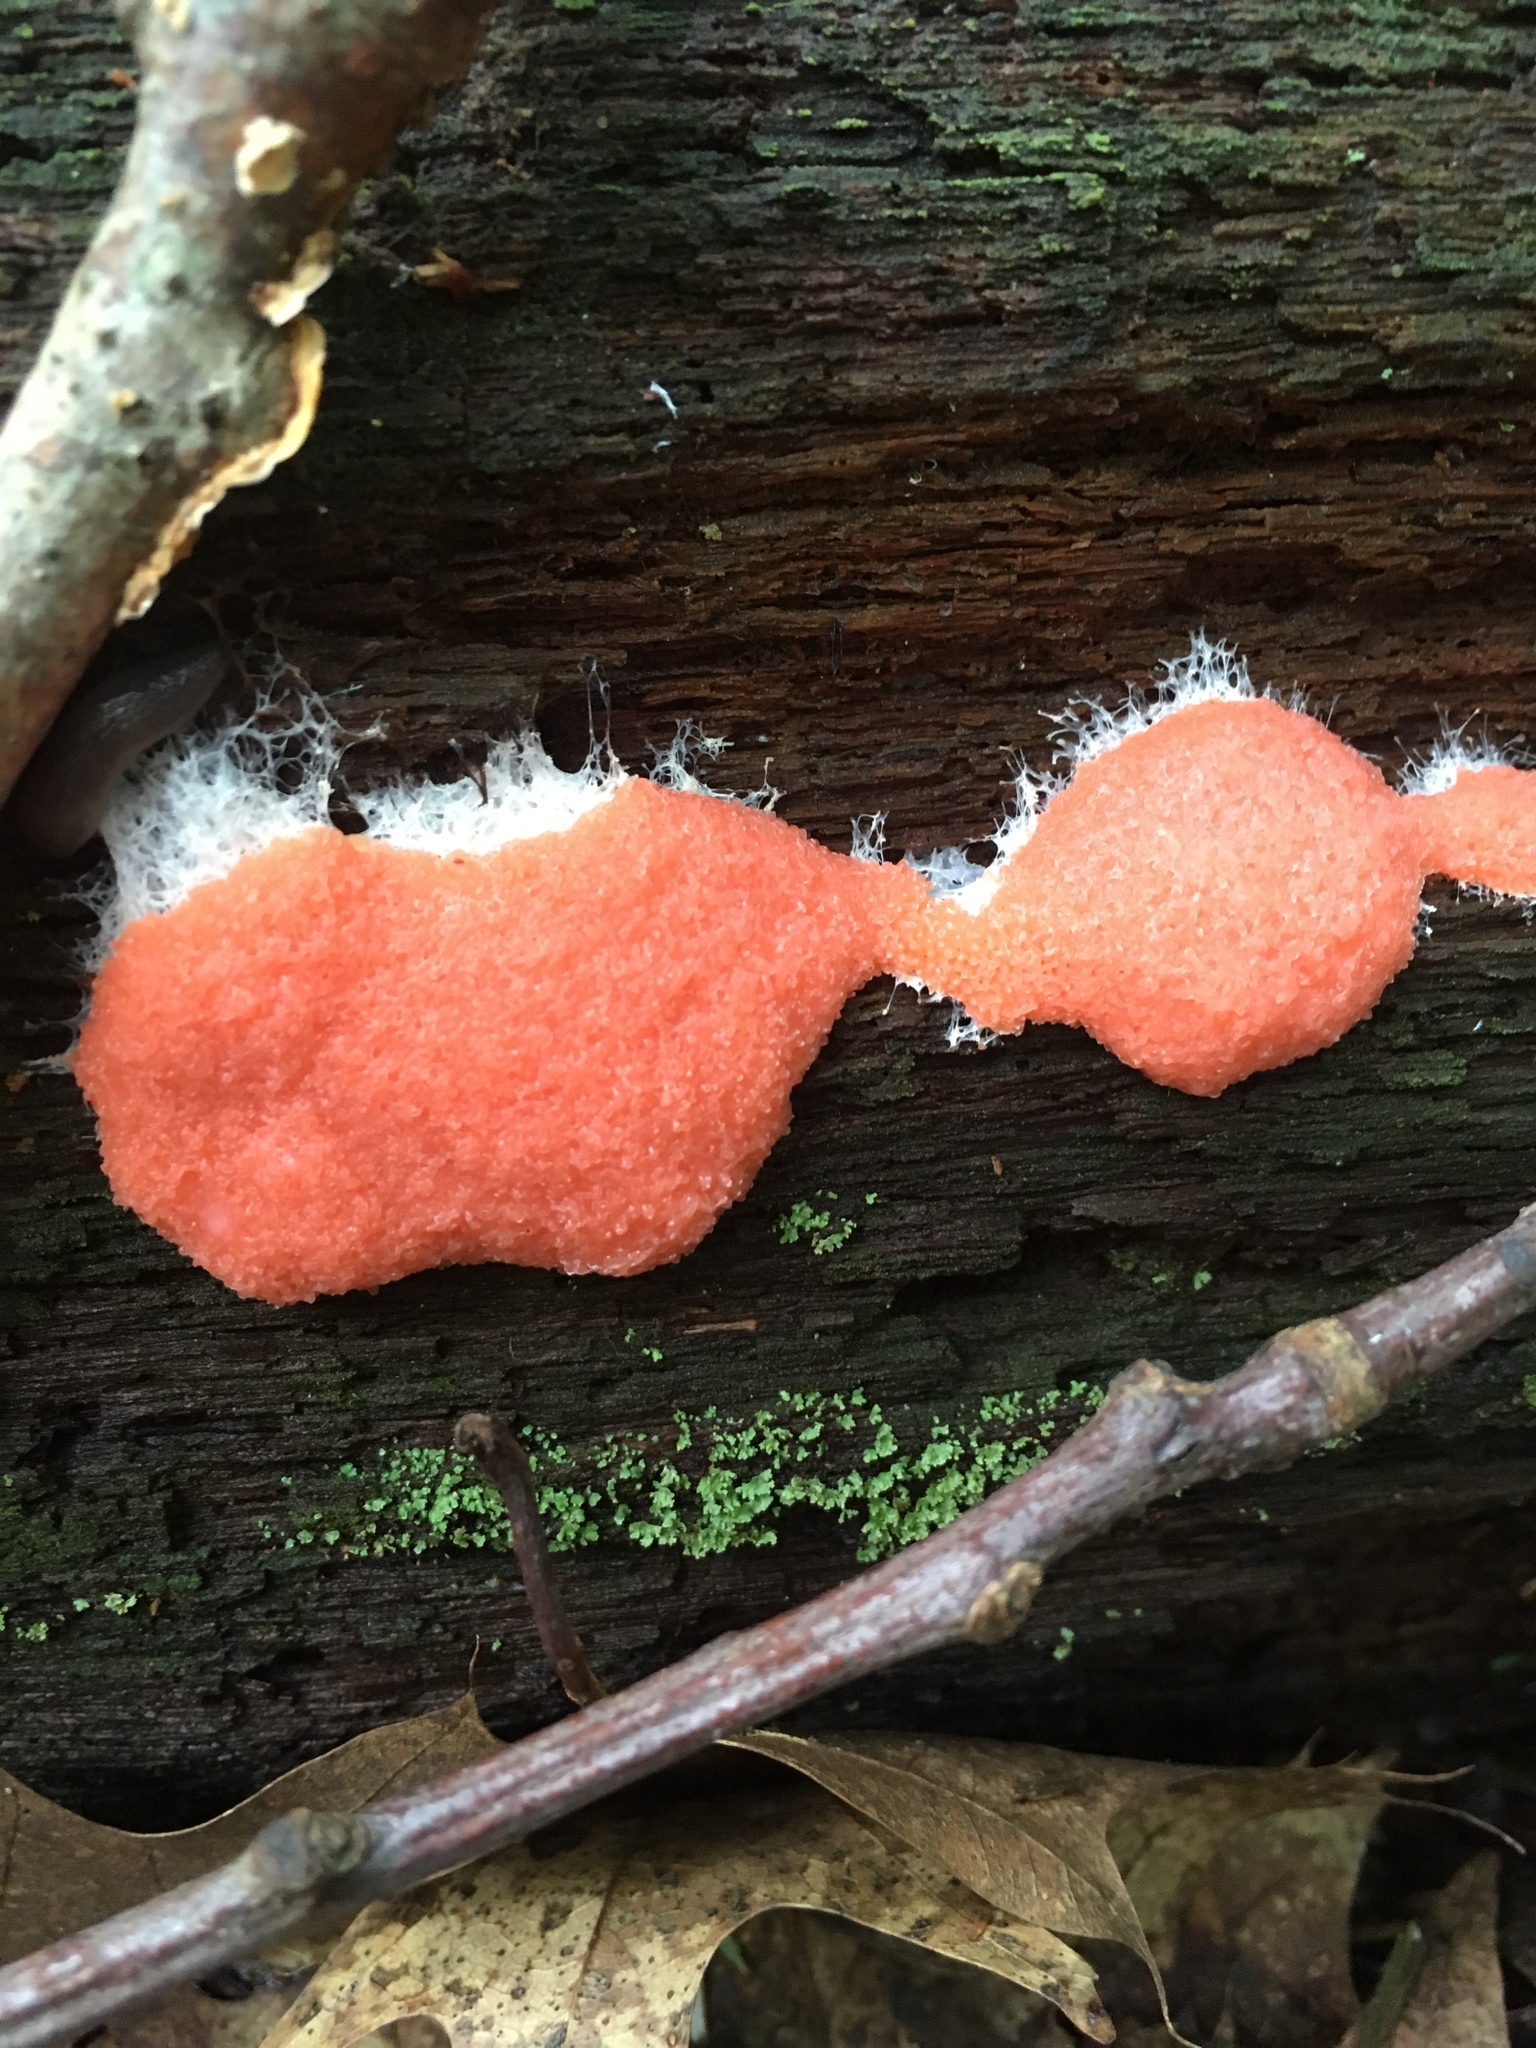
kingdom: Protozoa
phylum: Mycetozoa
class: Myxomycetes
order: Cribrariales
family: Tubiferaceae
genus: Tubifera
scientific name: Tubifera ferruginosa
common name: Red raspberry slime mold
